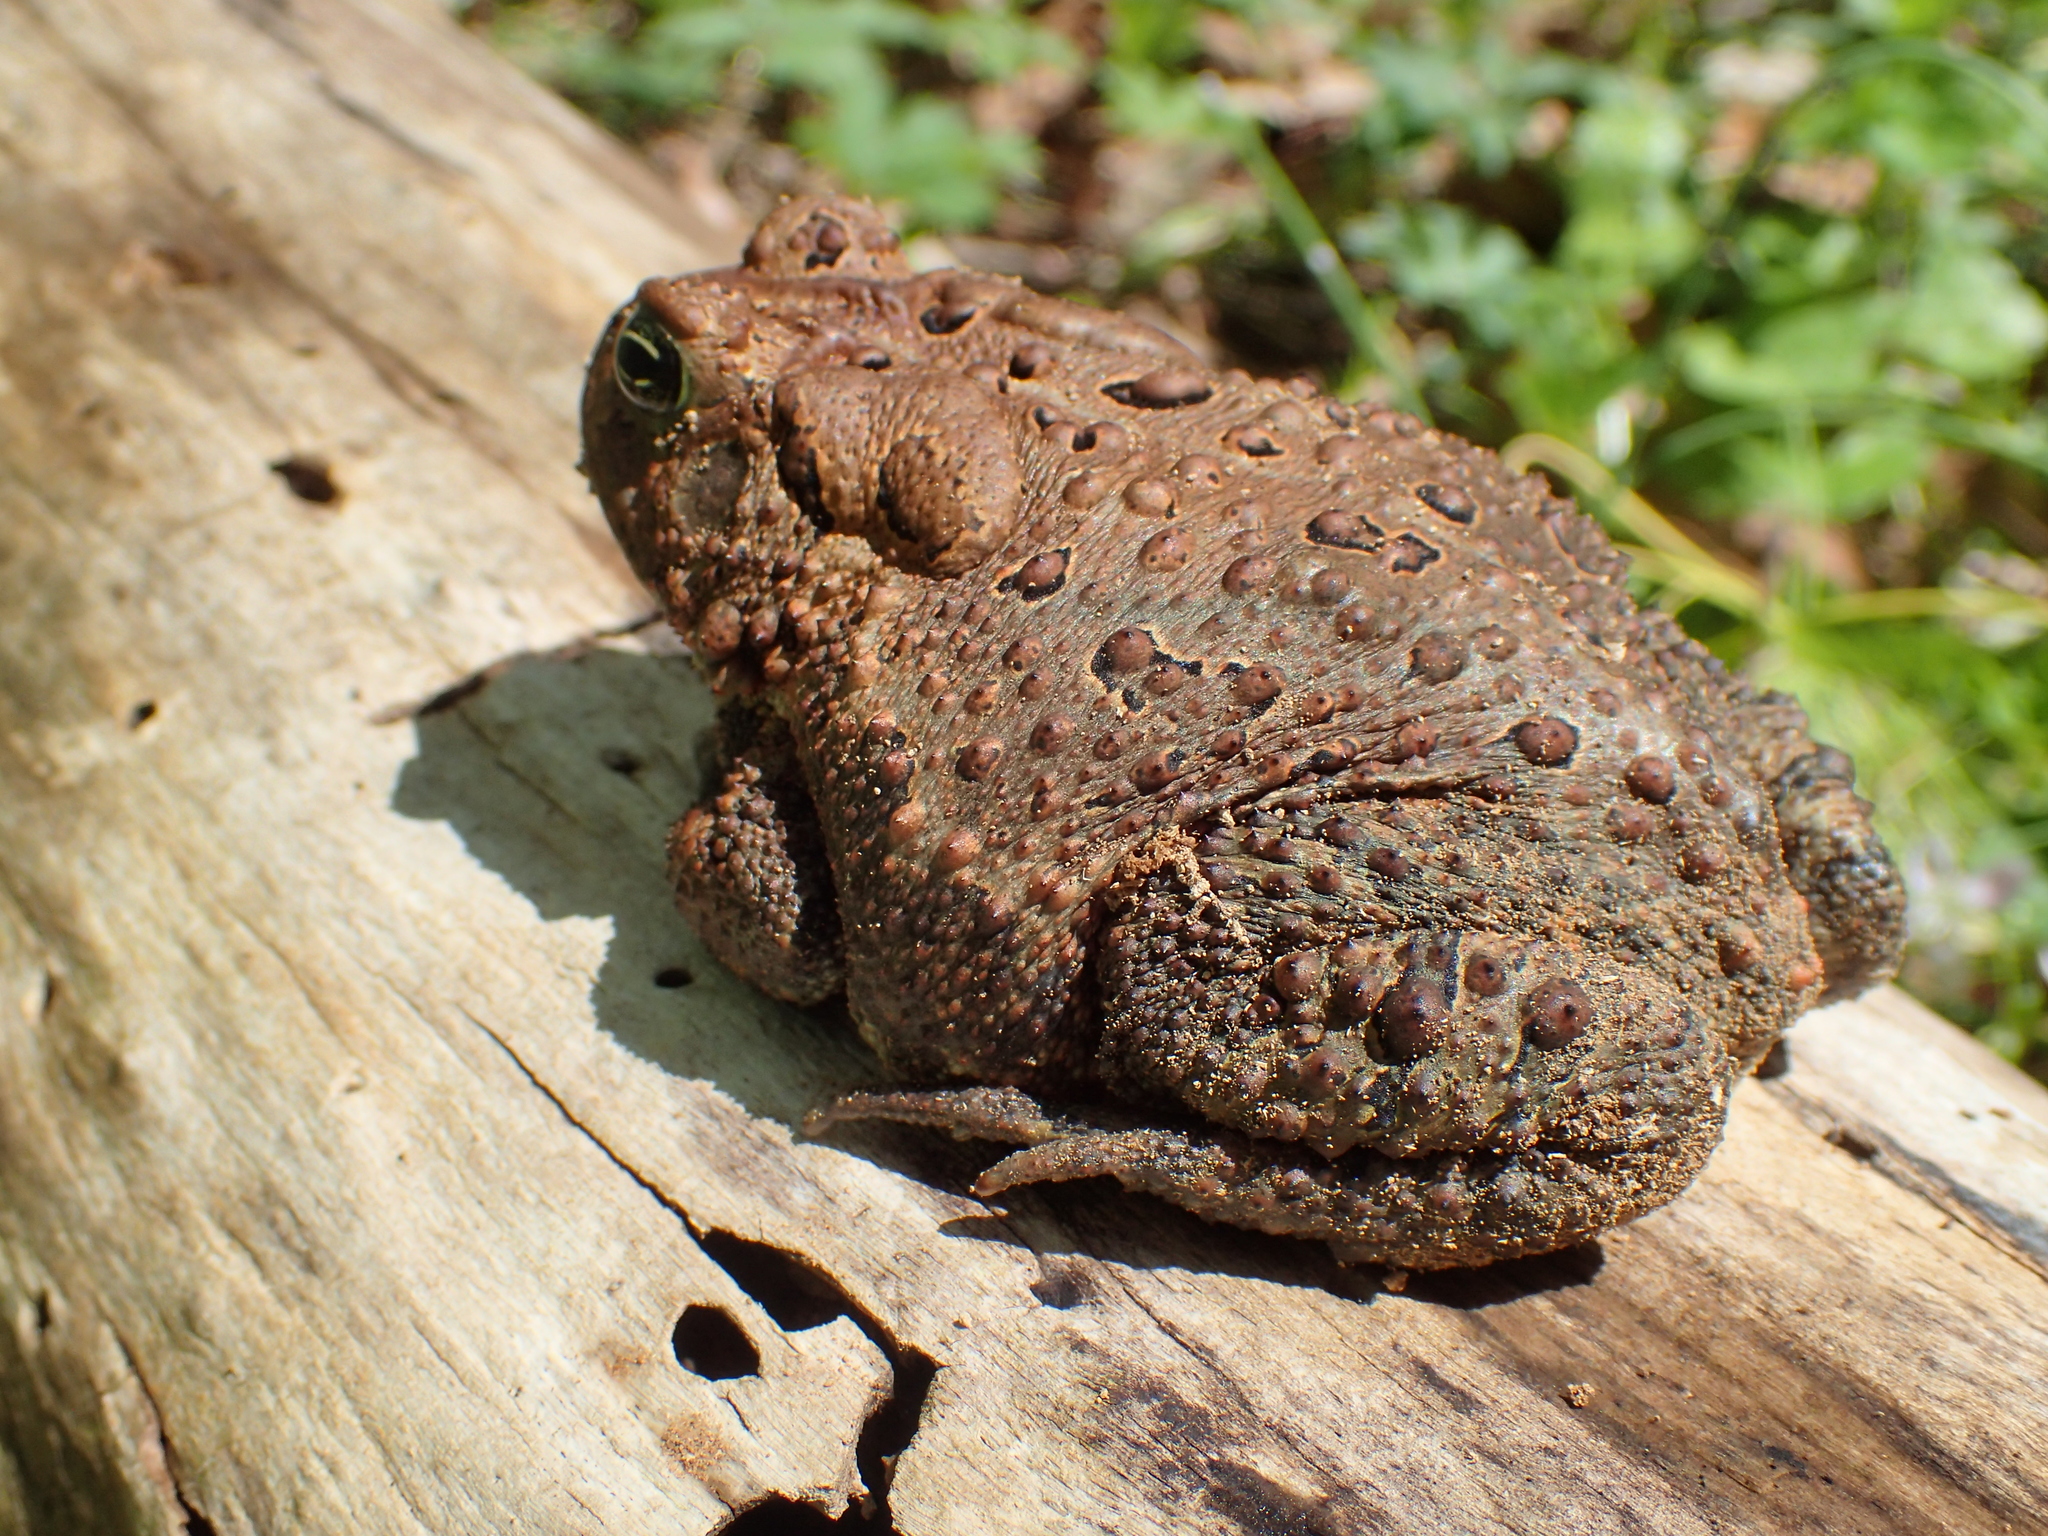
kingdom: Animalia
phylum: Chordata
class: Amphibia
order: Anura
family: Bufonidae
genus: Anaxyrus
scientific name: Anaxyrus americanus
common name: American toad
